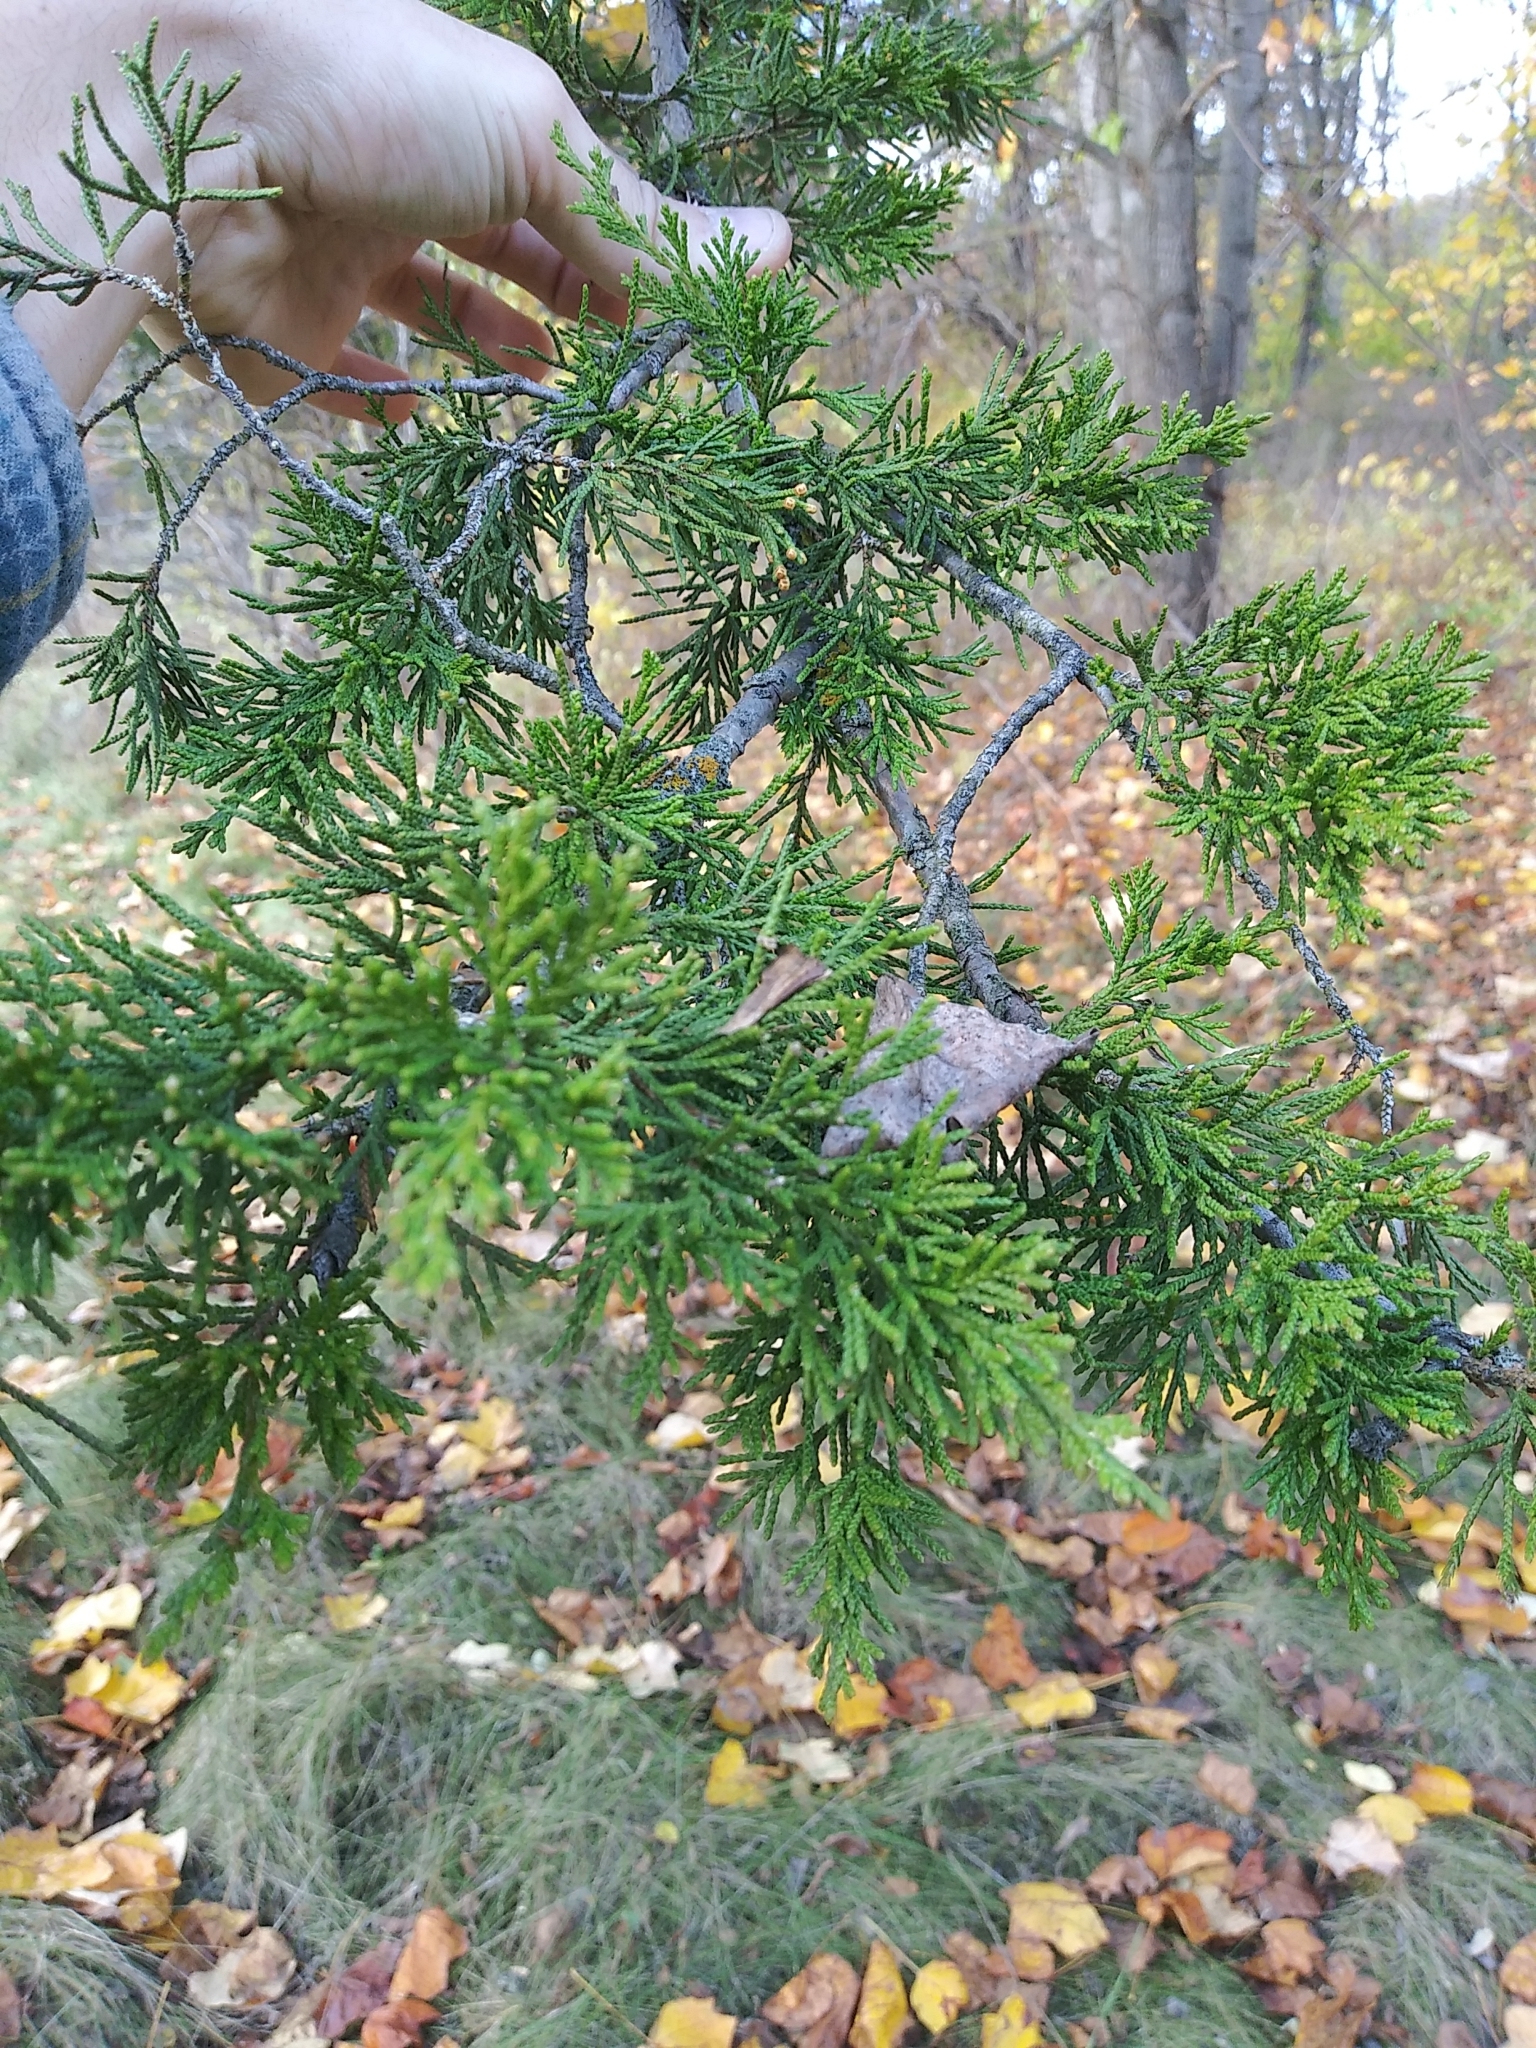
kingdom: Plantae
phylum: Tracheophyta
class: Pinopsida
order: Pinales
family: Cupressaceae
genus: Juniperus
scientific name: Juniperus virginiana
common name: Red juniper
